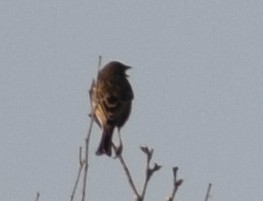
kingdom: Animalia
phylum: Chordata
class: Aves
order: Passeriformes
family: Emberizidae
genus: Emberiza
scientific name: Emberiza calandra
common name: Corn bunting
